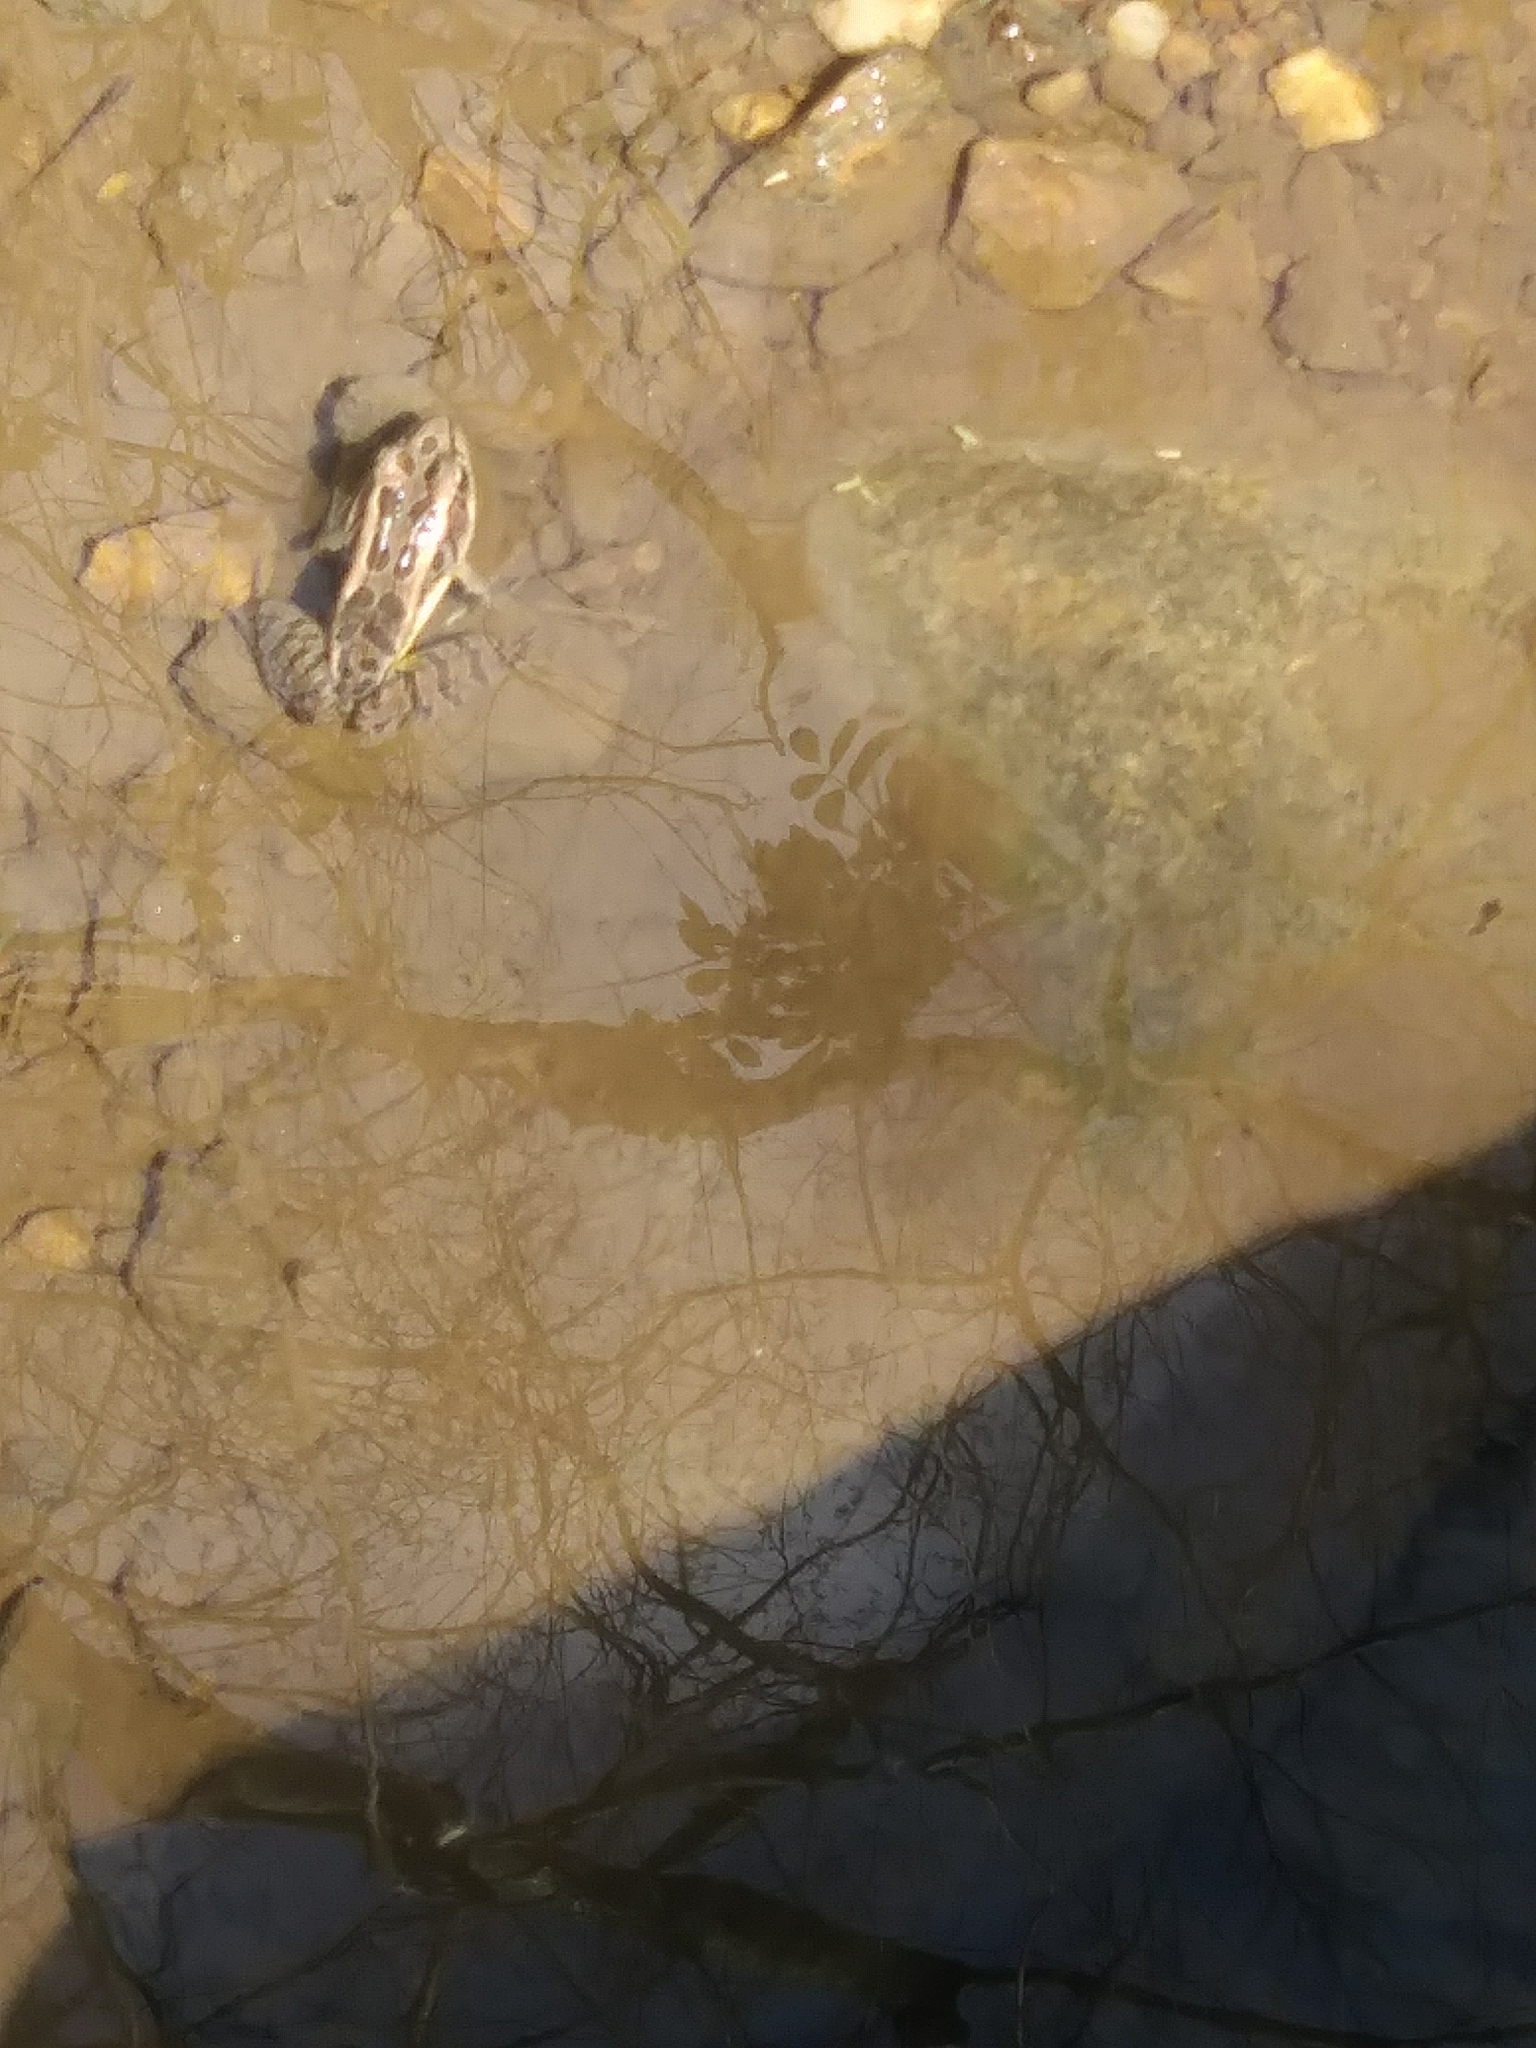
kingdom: Animalia
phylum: Chordata
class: Amphibia
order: Anura
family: Ranidae
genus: Lithobates
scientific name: Lithobates palustris
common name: Pickerel frog
